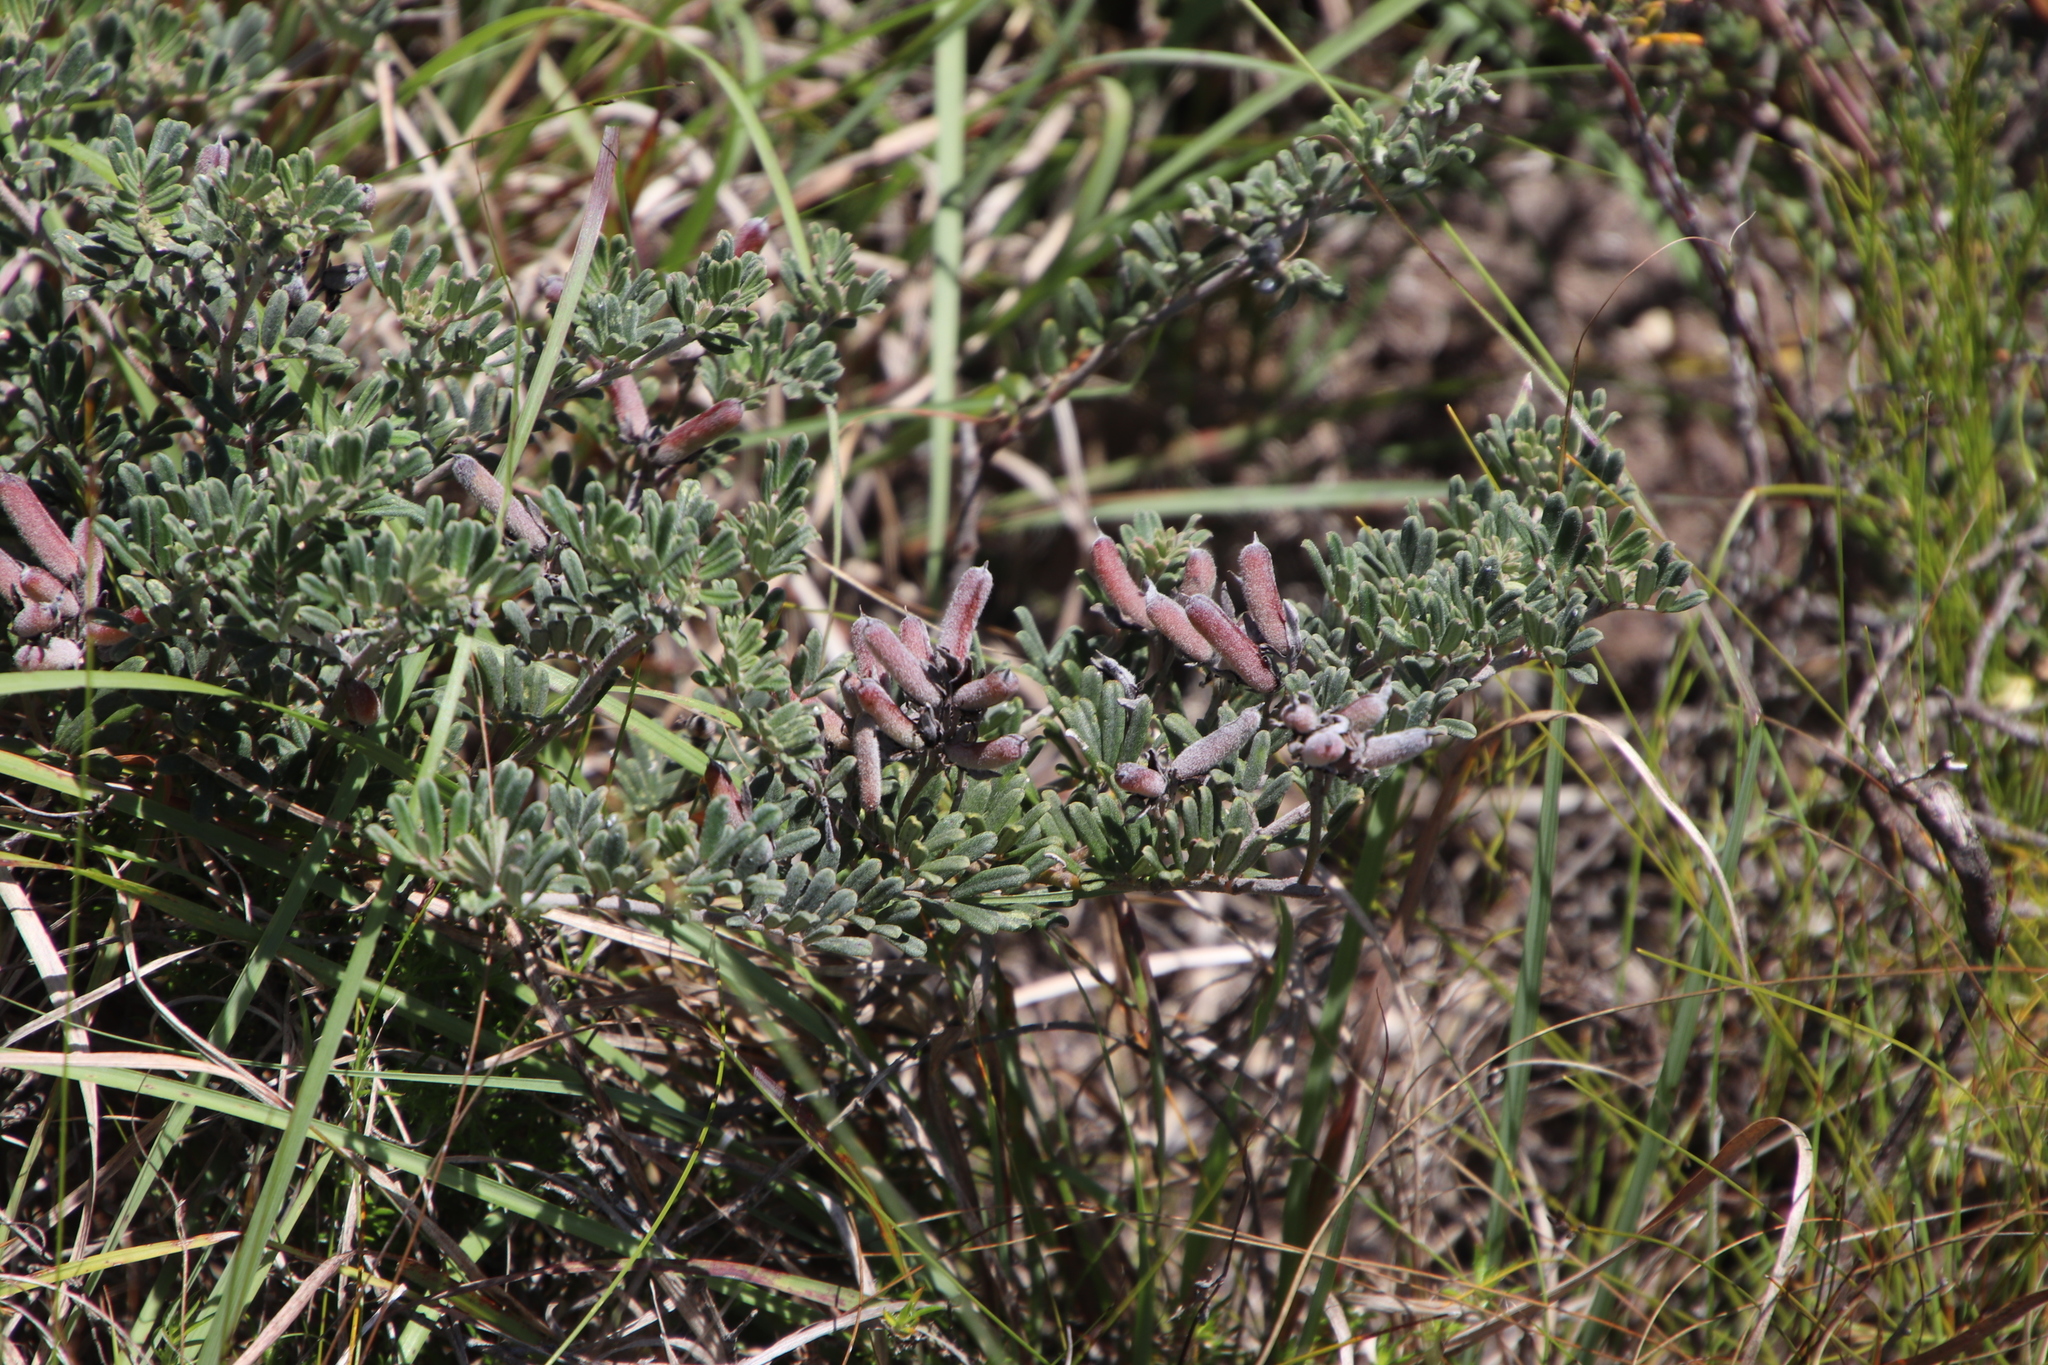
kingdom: Plantae
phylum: Tracheophyta
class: Magnoliopsida
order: Fabales
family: Fabaceae
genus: Indigofera
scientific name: Indigofera brachystachya
